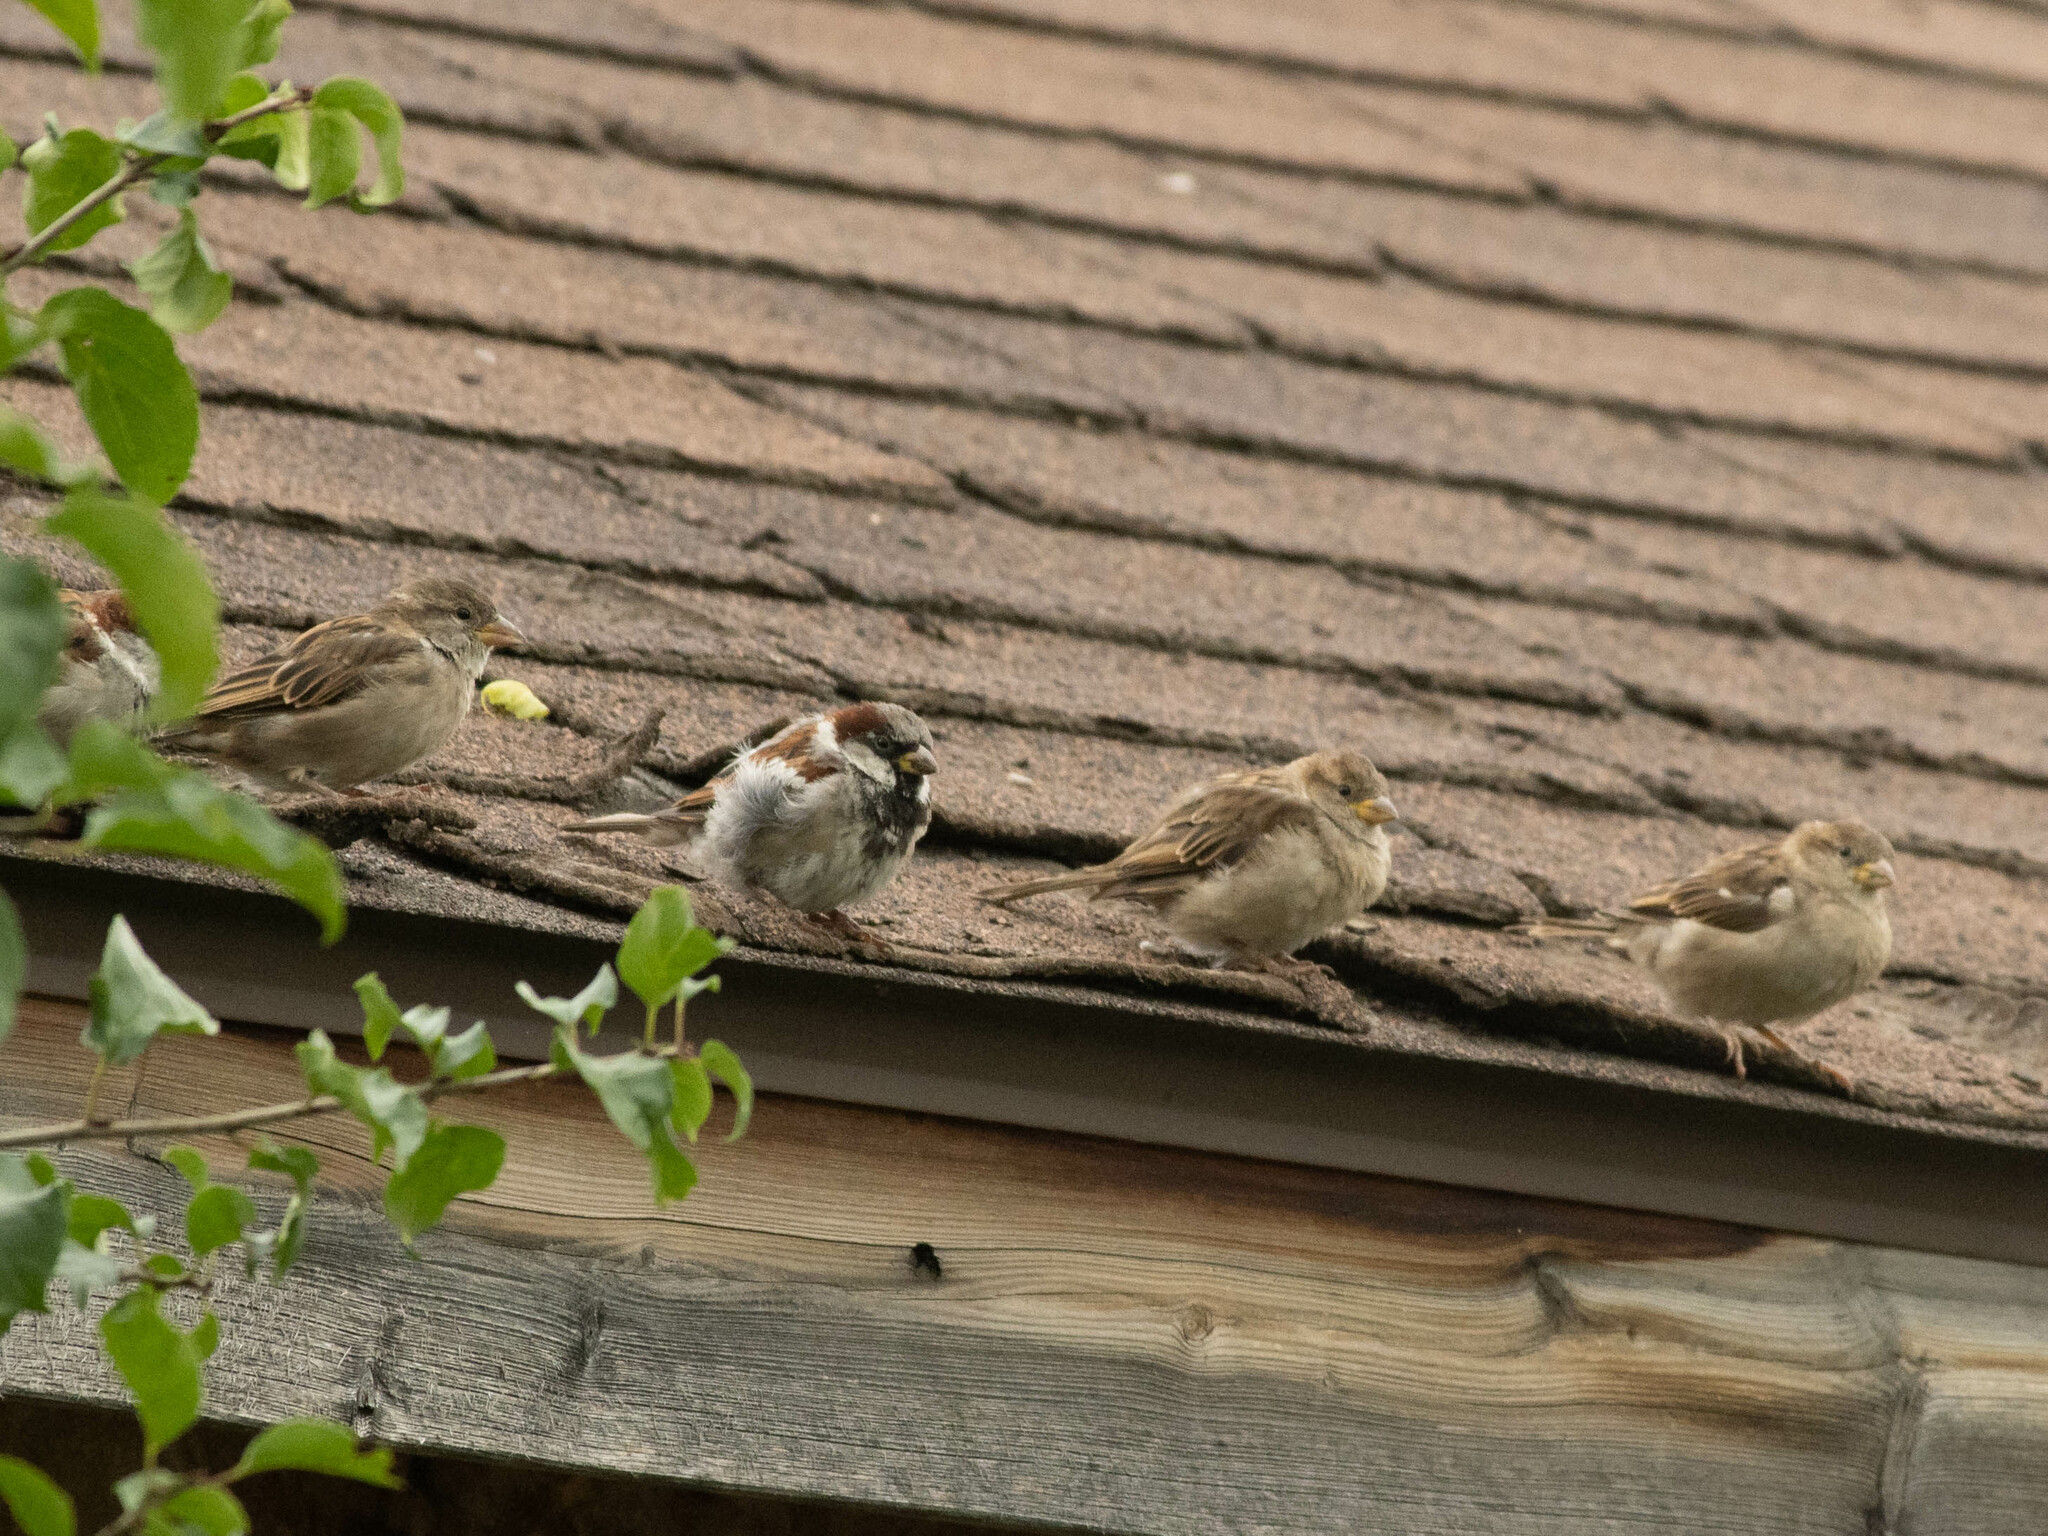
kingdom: Animalia
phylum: Chordata
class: Aves
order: Passeriformes
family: Passeridae
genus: Passer
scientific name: Passer domesticus
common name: House sparrow
